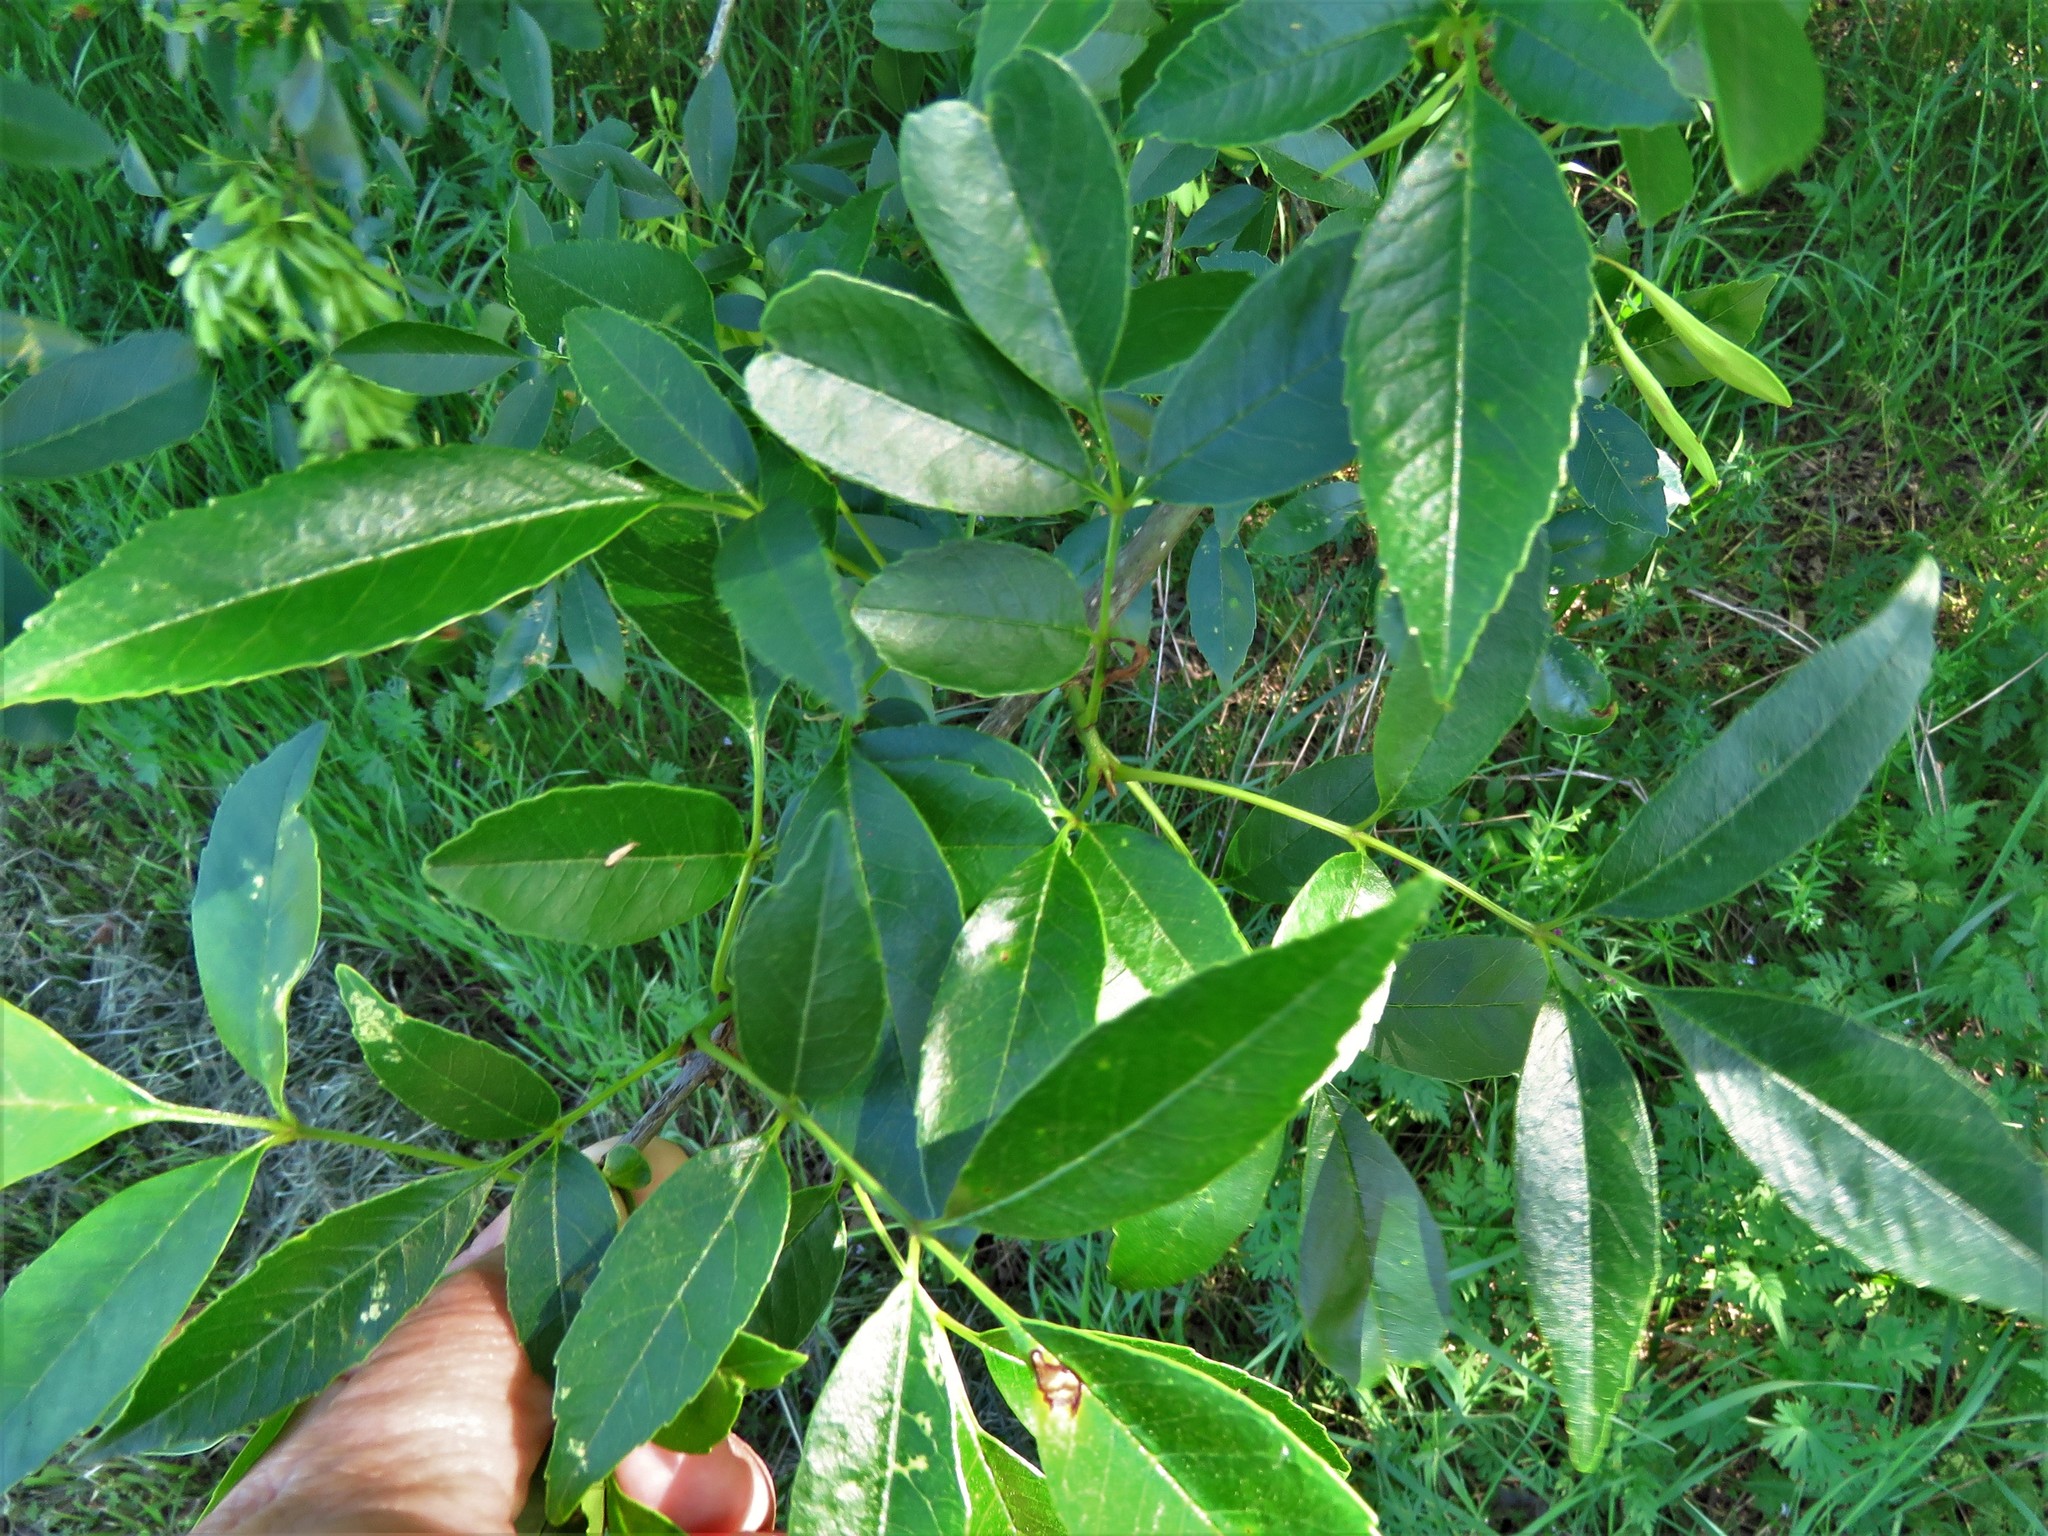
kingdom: Plantae
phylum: Tracheophyta
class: Magnoliopsida
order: Lamiales
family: Oleaceae
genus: Fraxinus
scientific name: Fraxinus pennsylvanica
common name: Green ash
